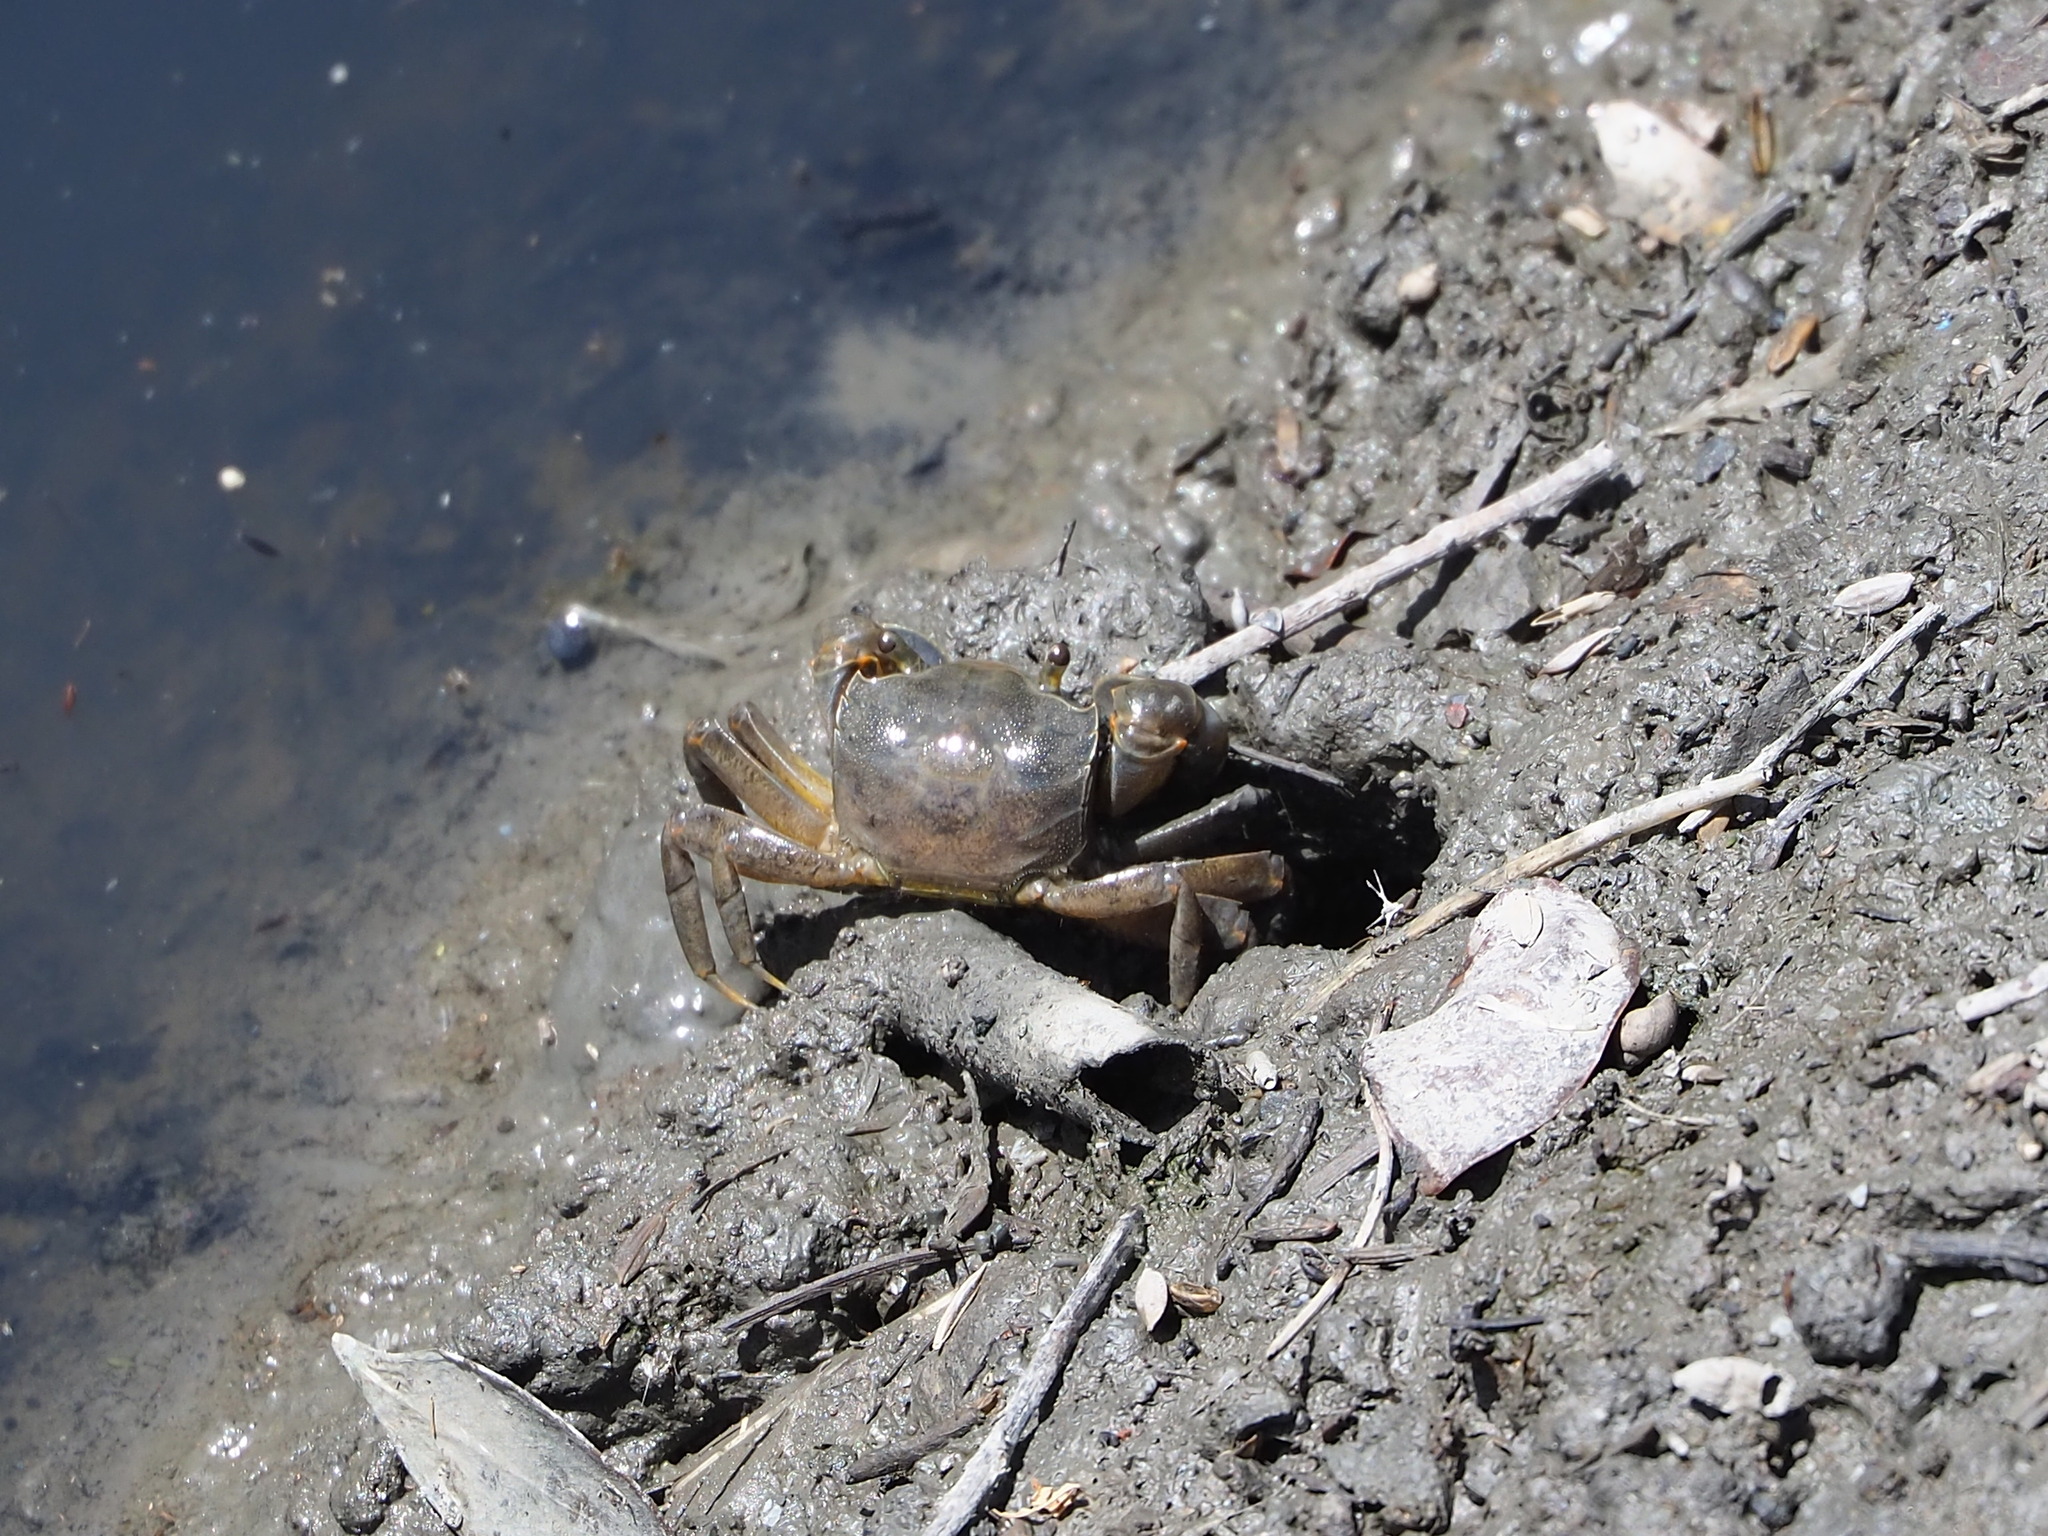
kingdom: Animalia
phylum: Arthropoda
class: Malacostraca
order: Decapoda
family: Varunidae
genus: Helice
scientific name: Helice formosensis
